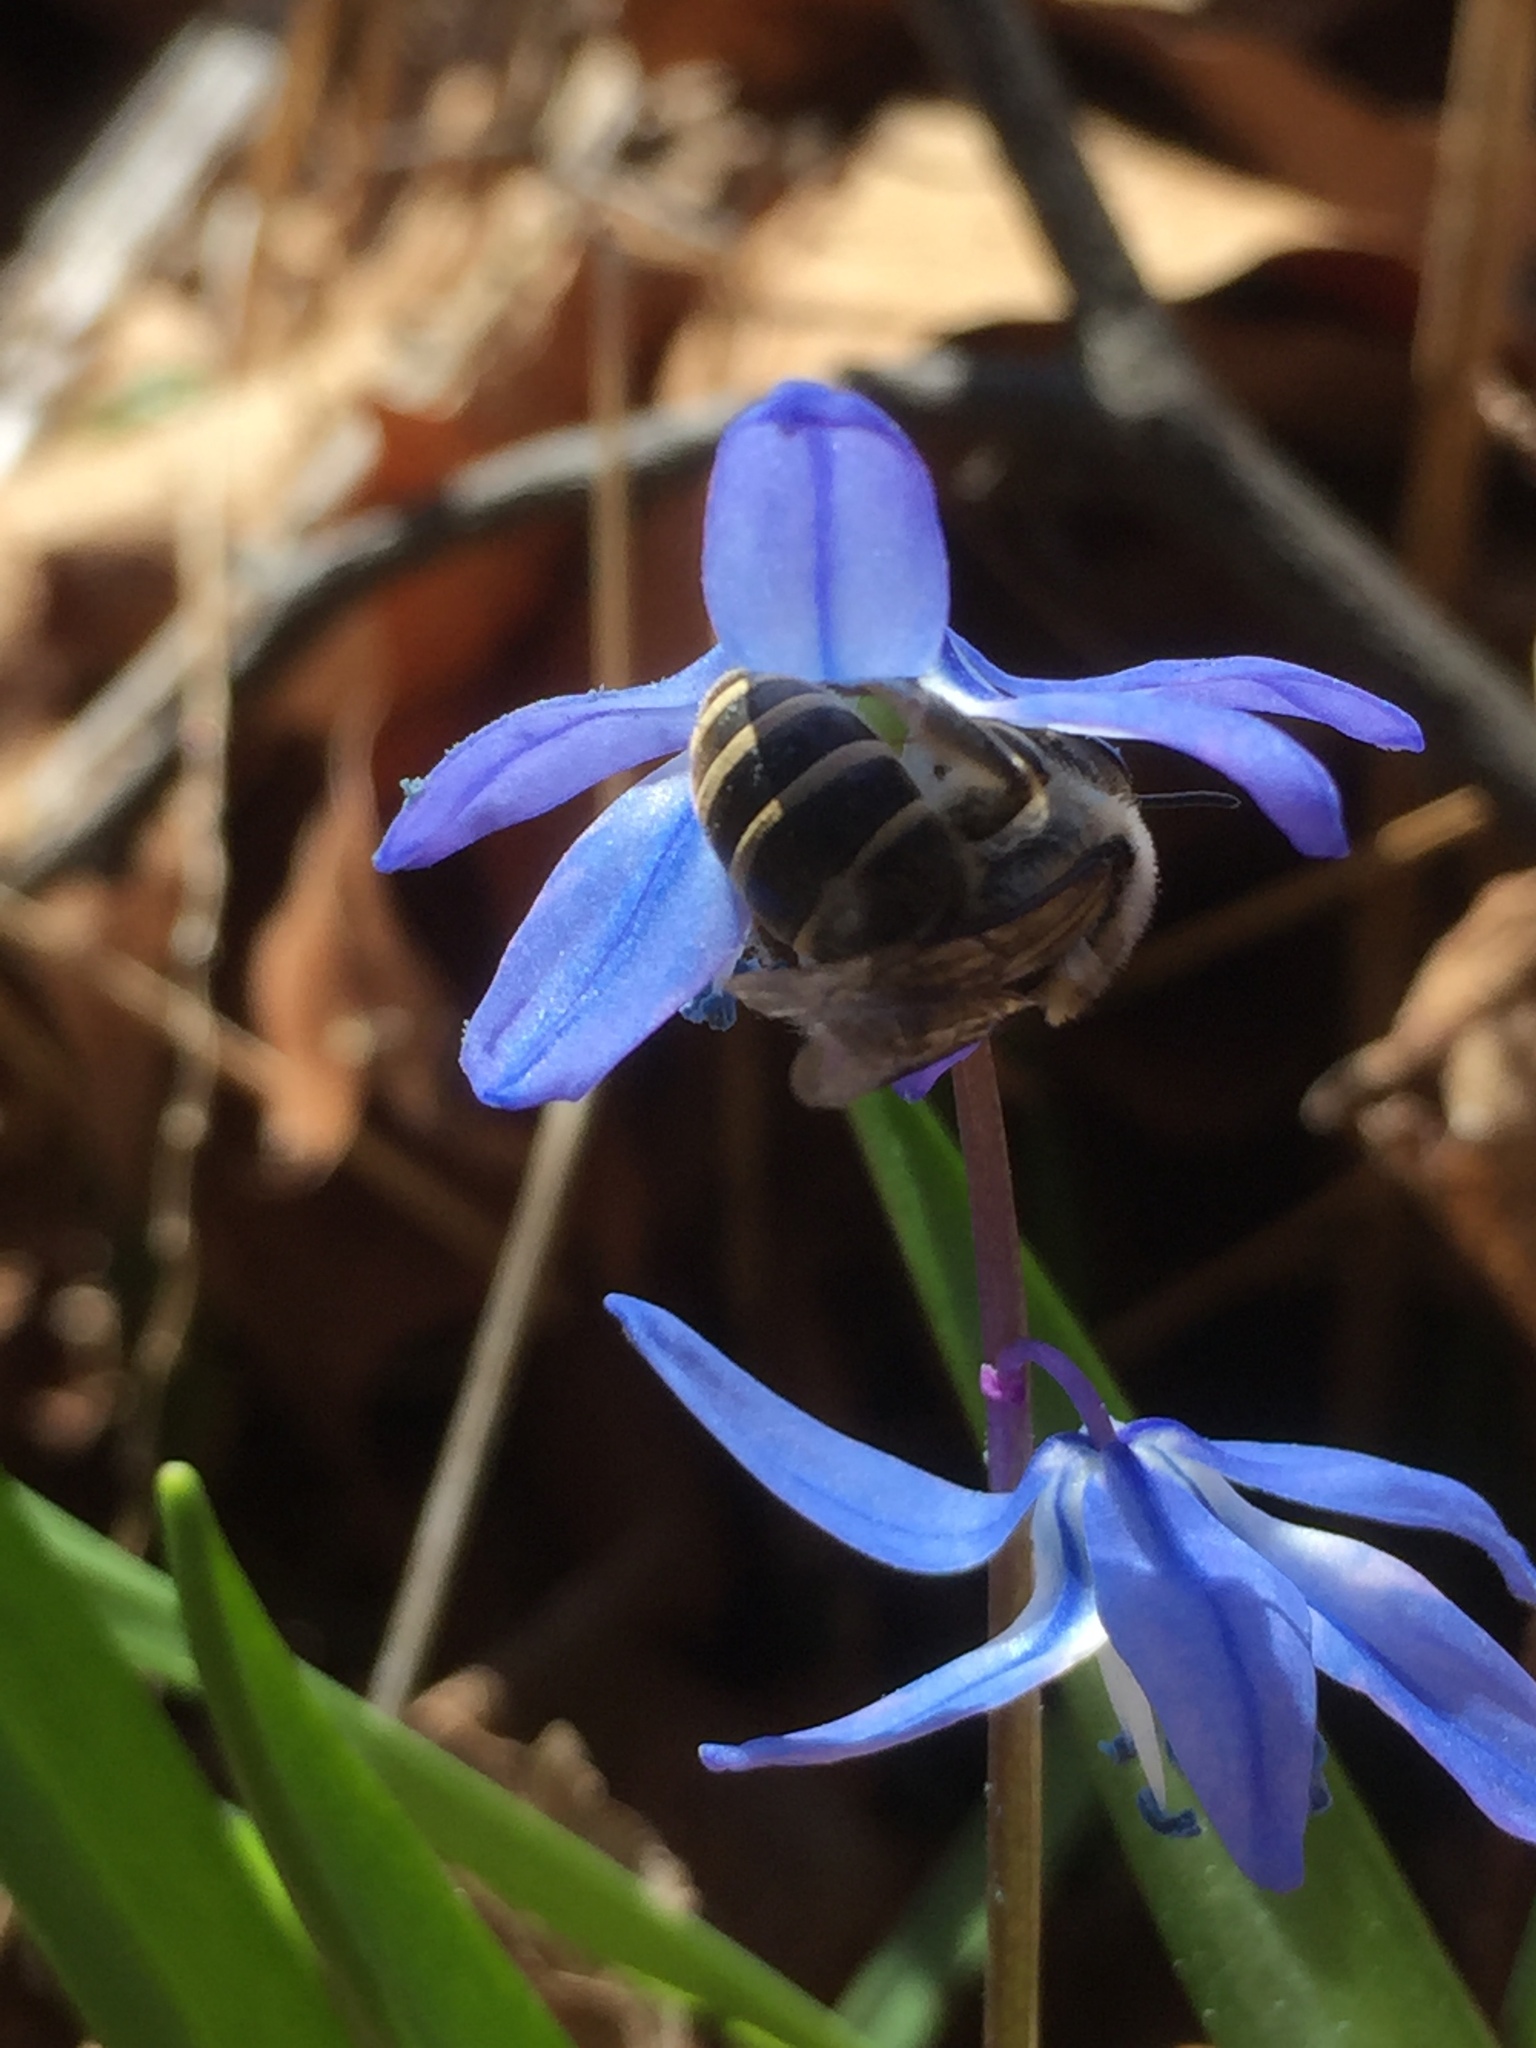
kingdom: Animalia
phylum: Arthropoda
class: Insecta
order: Hymenoptera
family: Colletidae
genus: Colletes
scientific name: Colletes inaequalis
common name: Unequal cellophane bee
